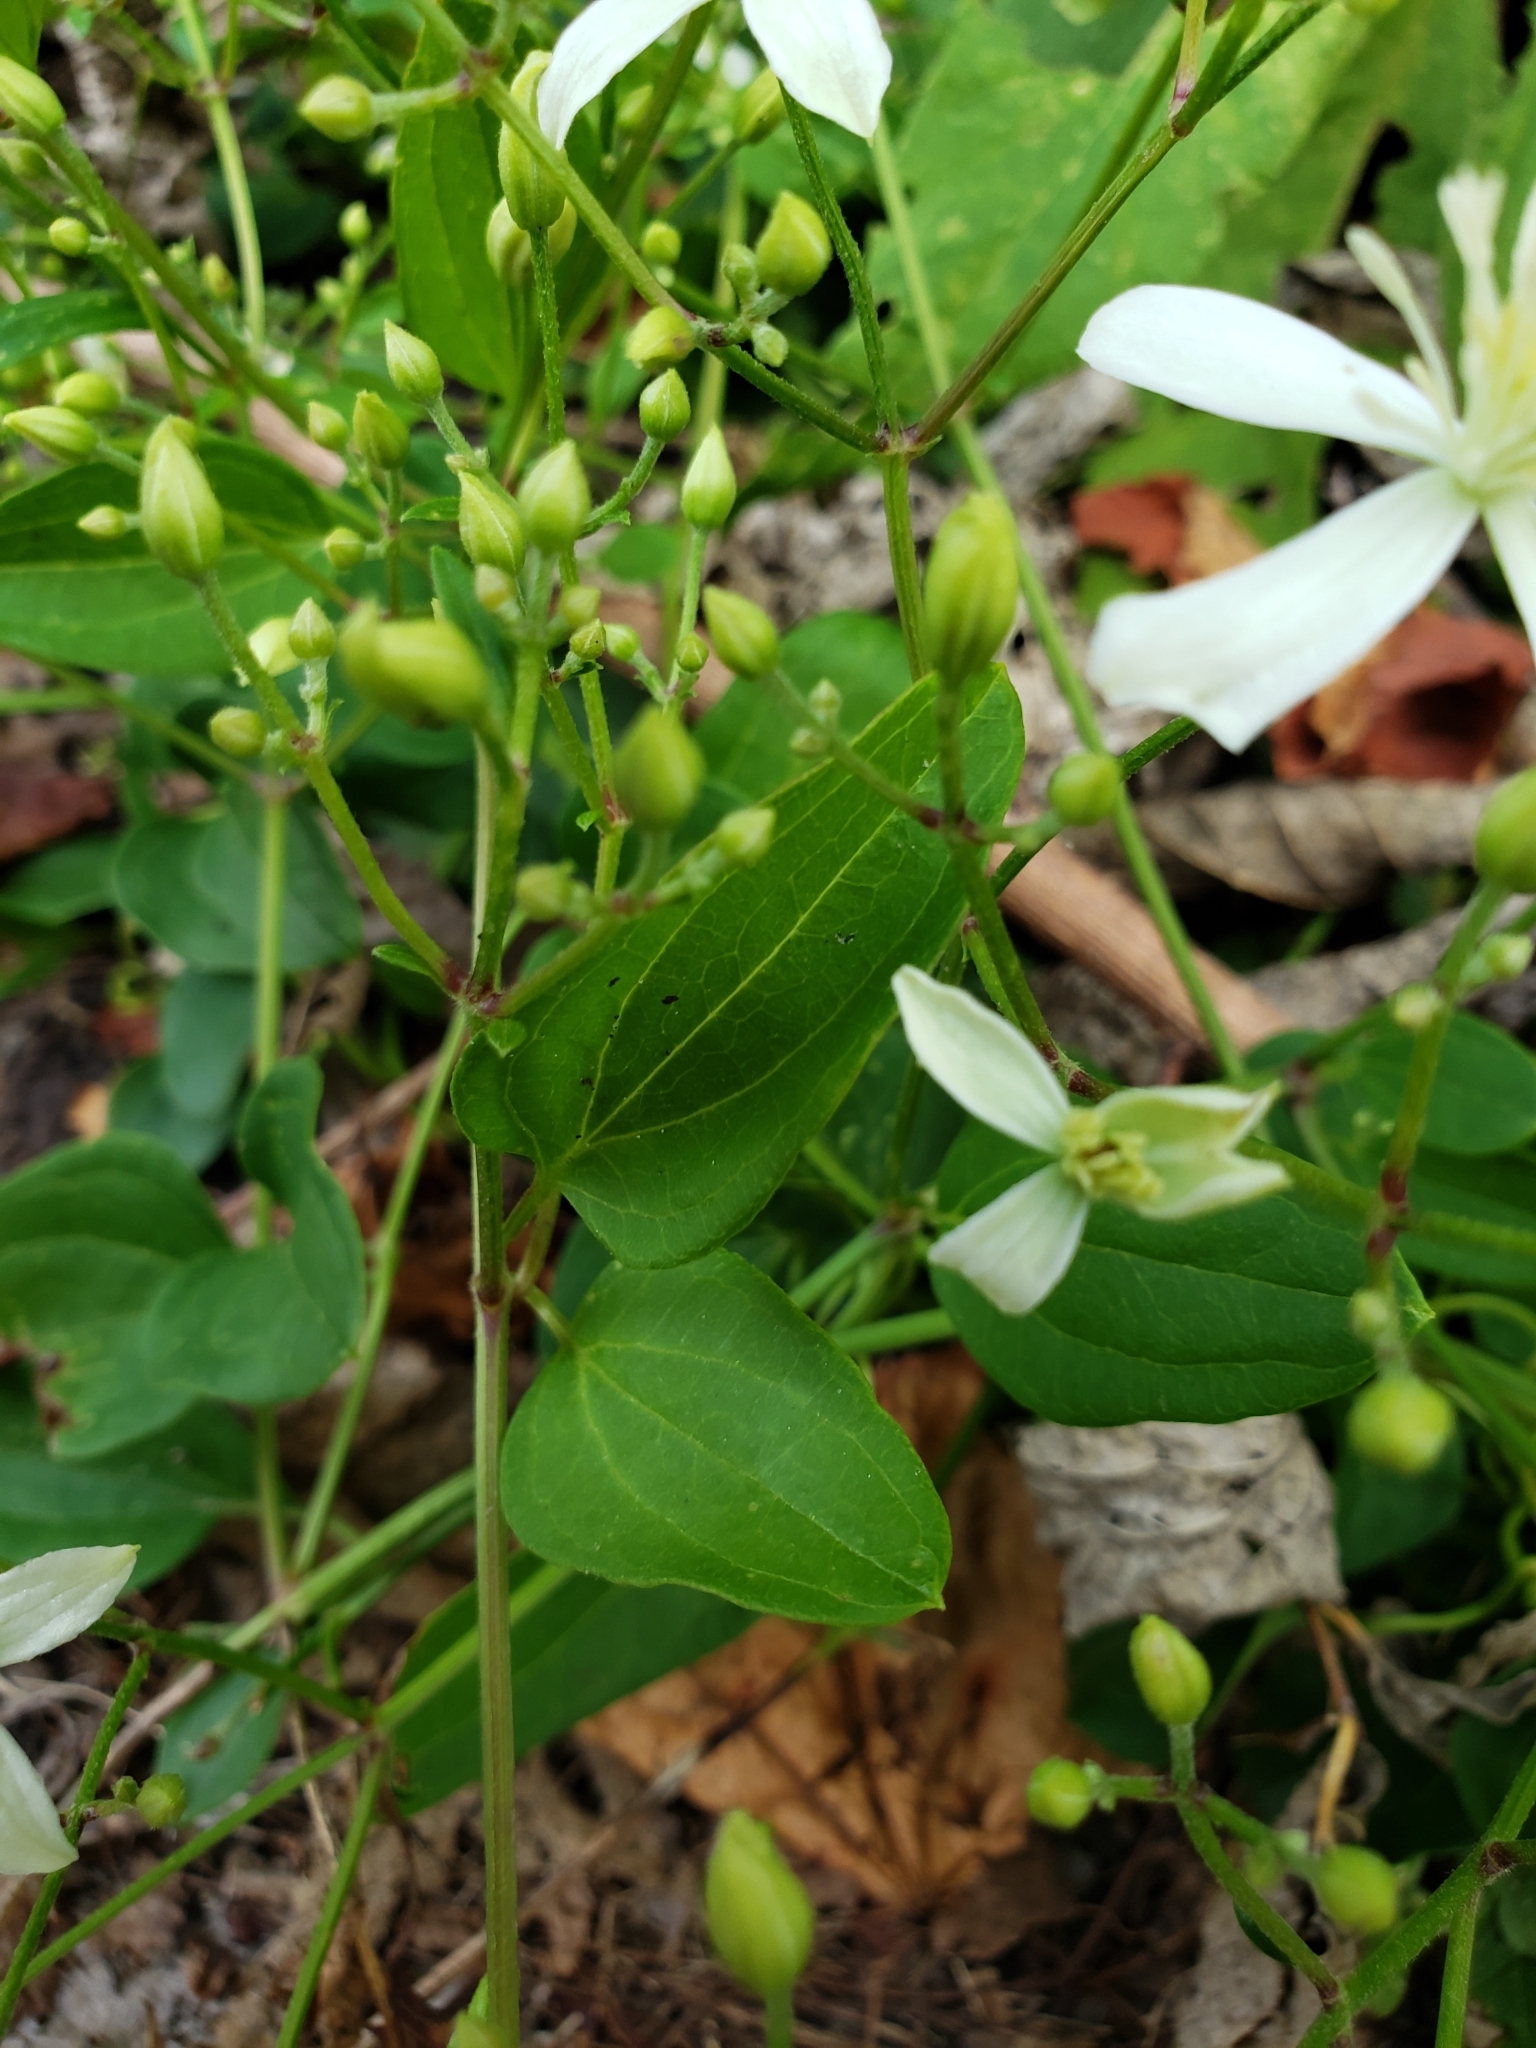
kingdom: Plantae
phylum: Tracheophyta
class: Magnoliopsida
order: Ranunculales
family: Ranunculaceae
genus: Clematis
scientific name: Clematis virginiana
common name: Virgin's-bower
